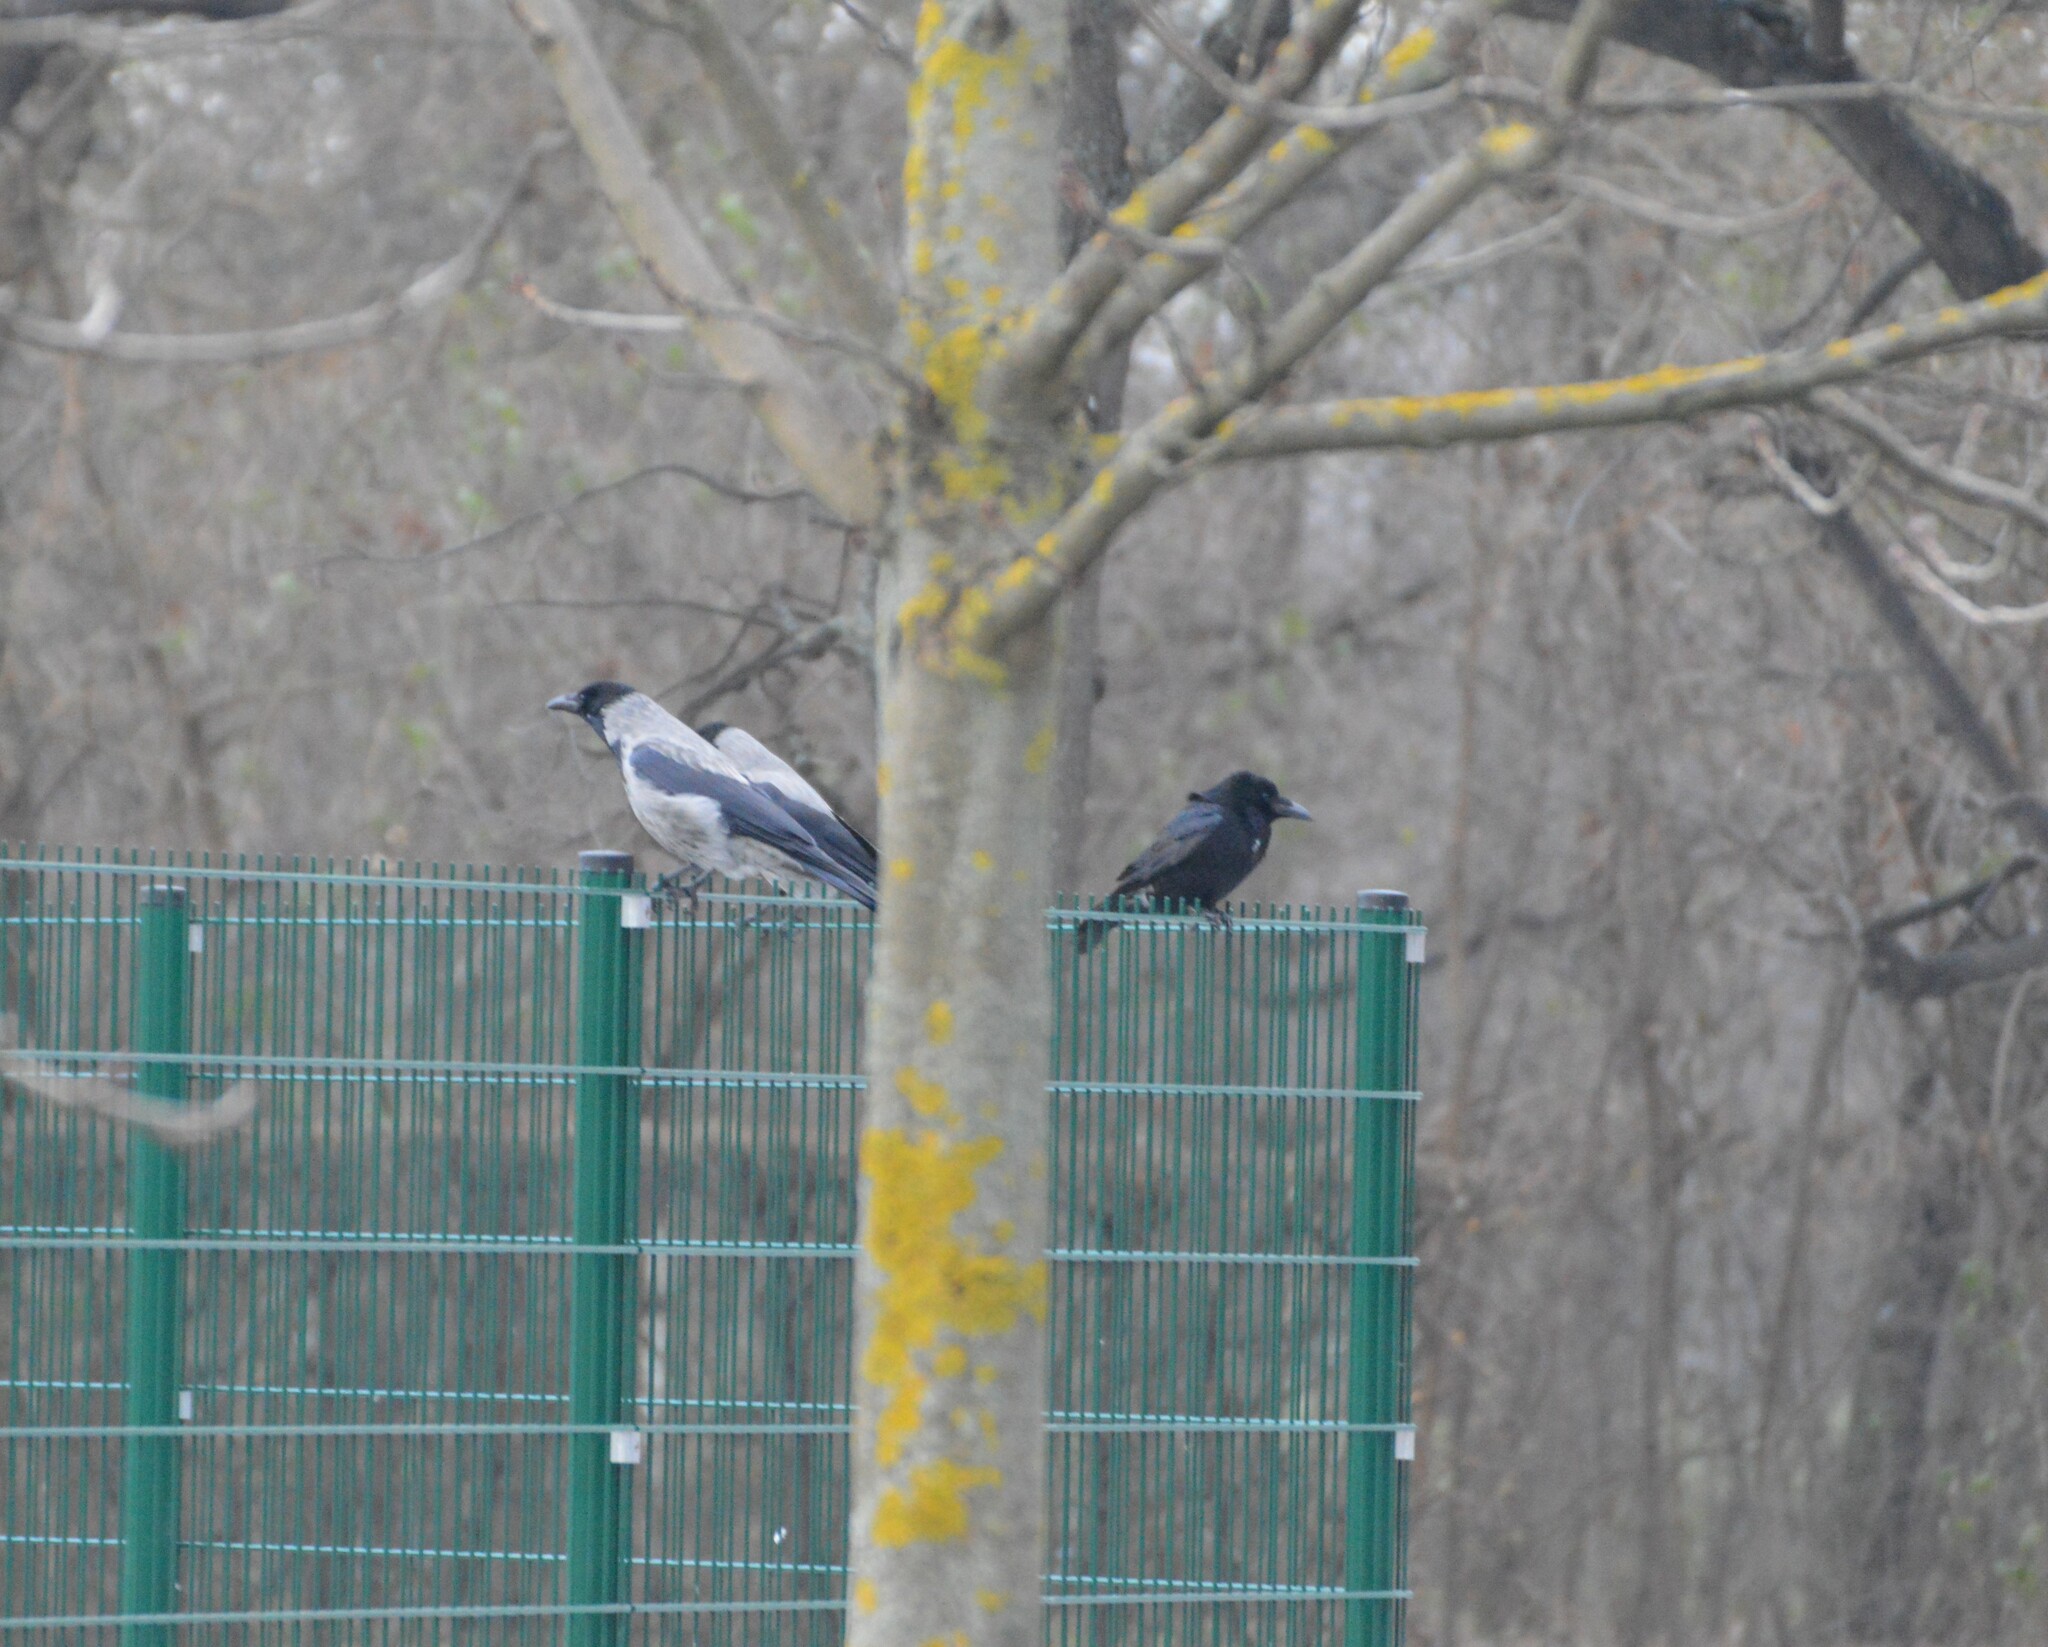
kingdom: Animalia
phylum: Chordata
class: Aves
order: Passeriformes
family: Corvidae
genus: Corvus
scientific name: Corvus corone
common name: Carrion crow
